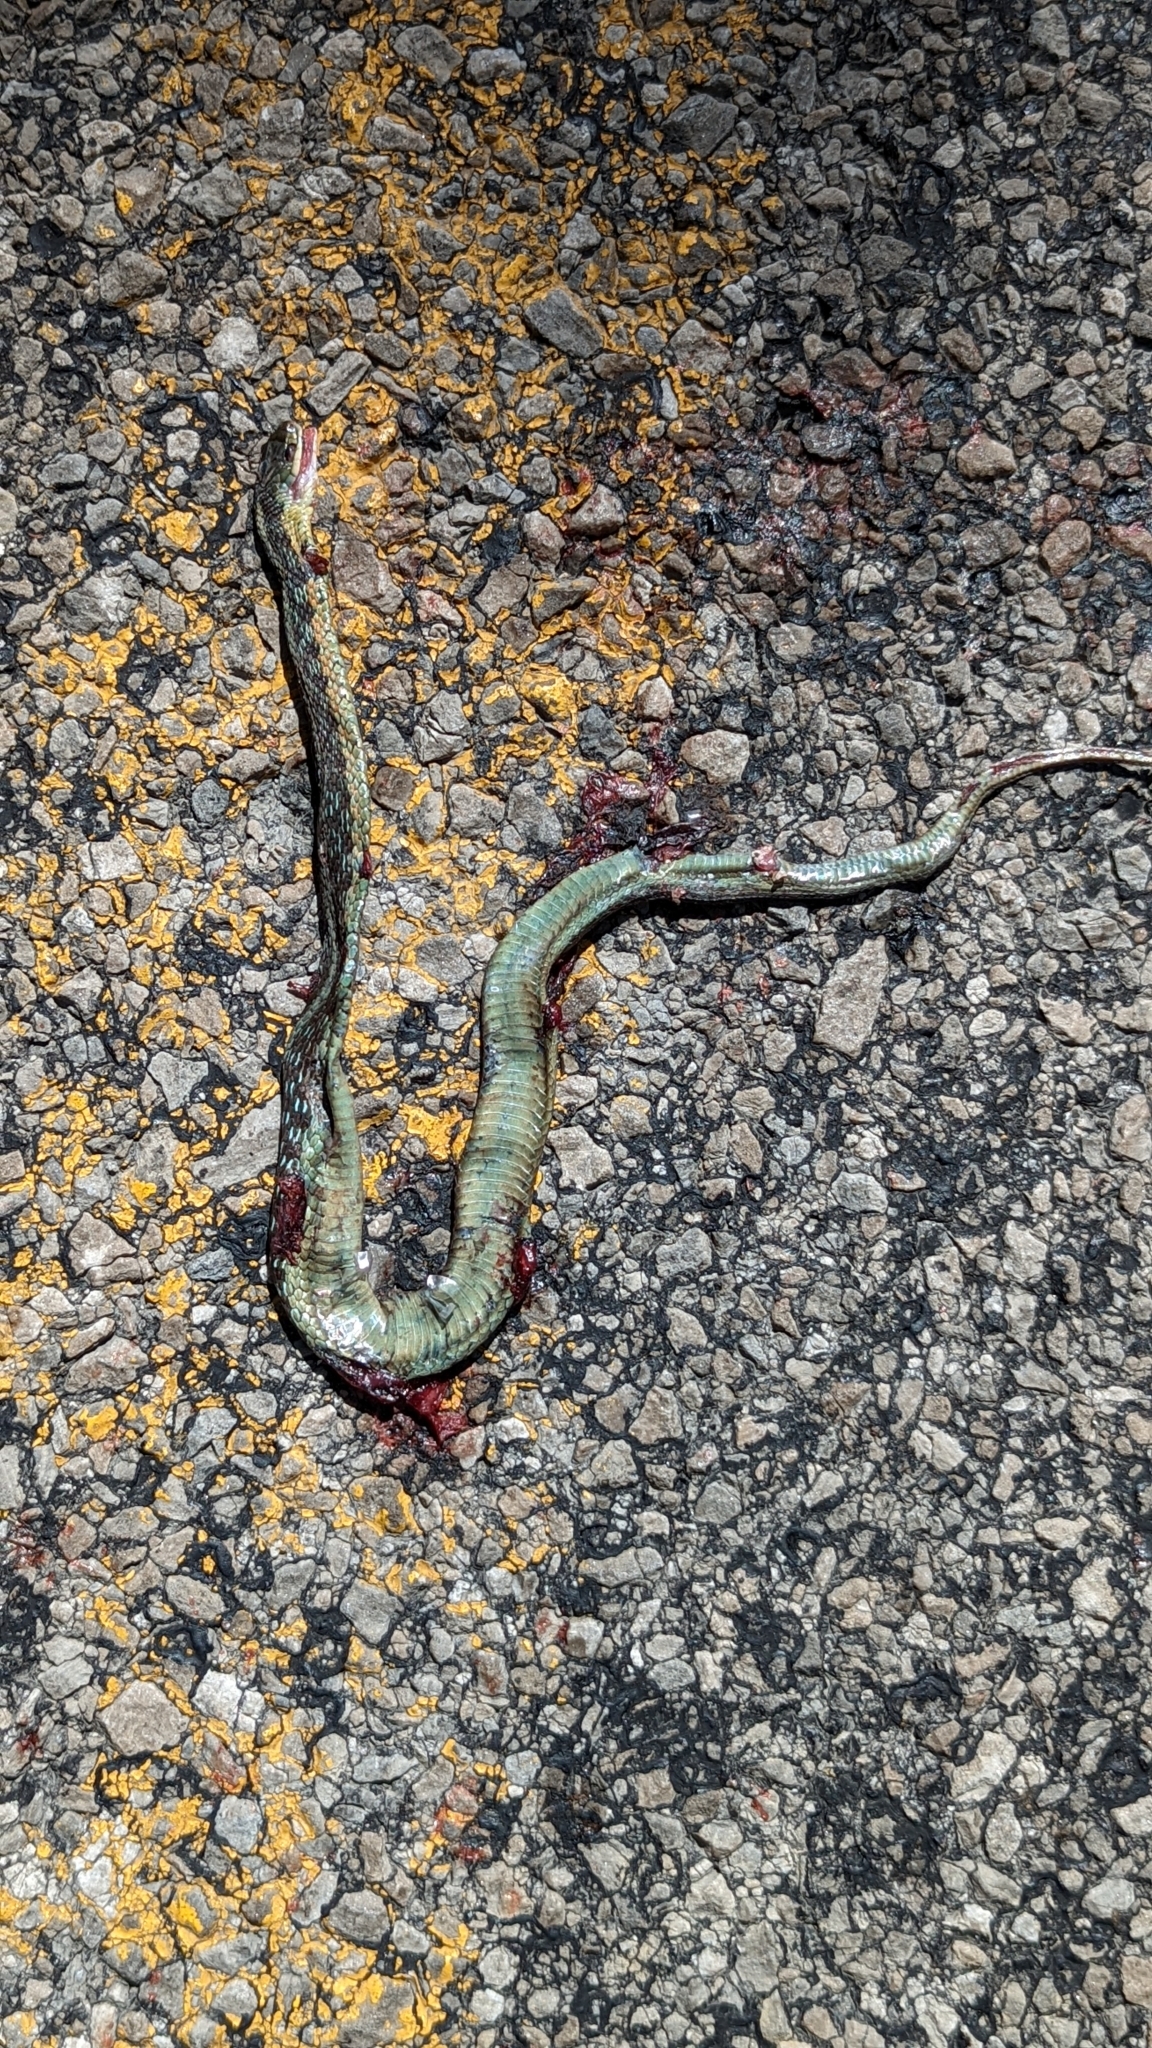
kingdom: Animalia
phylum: Chordata
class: Squamata
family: Colubridae
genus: Thamnophis
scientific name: Thamnophis sirtalis
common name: Common garter snake
